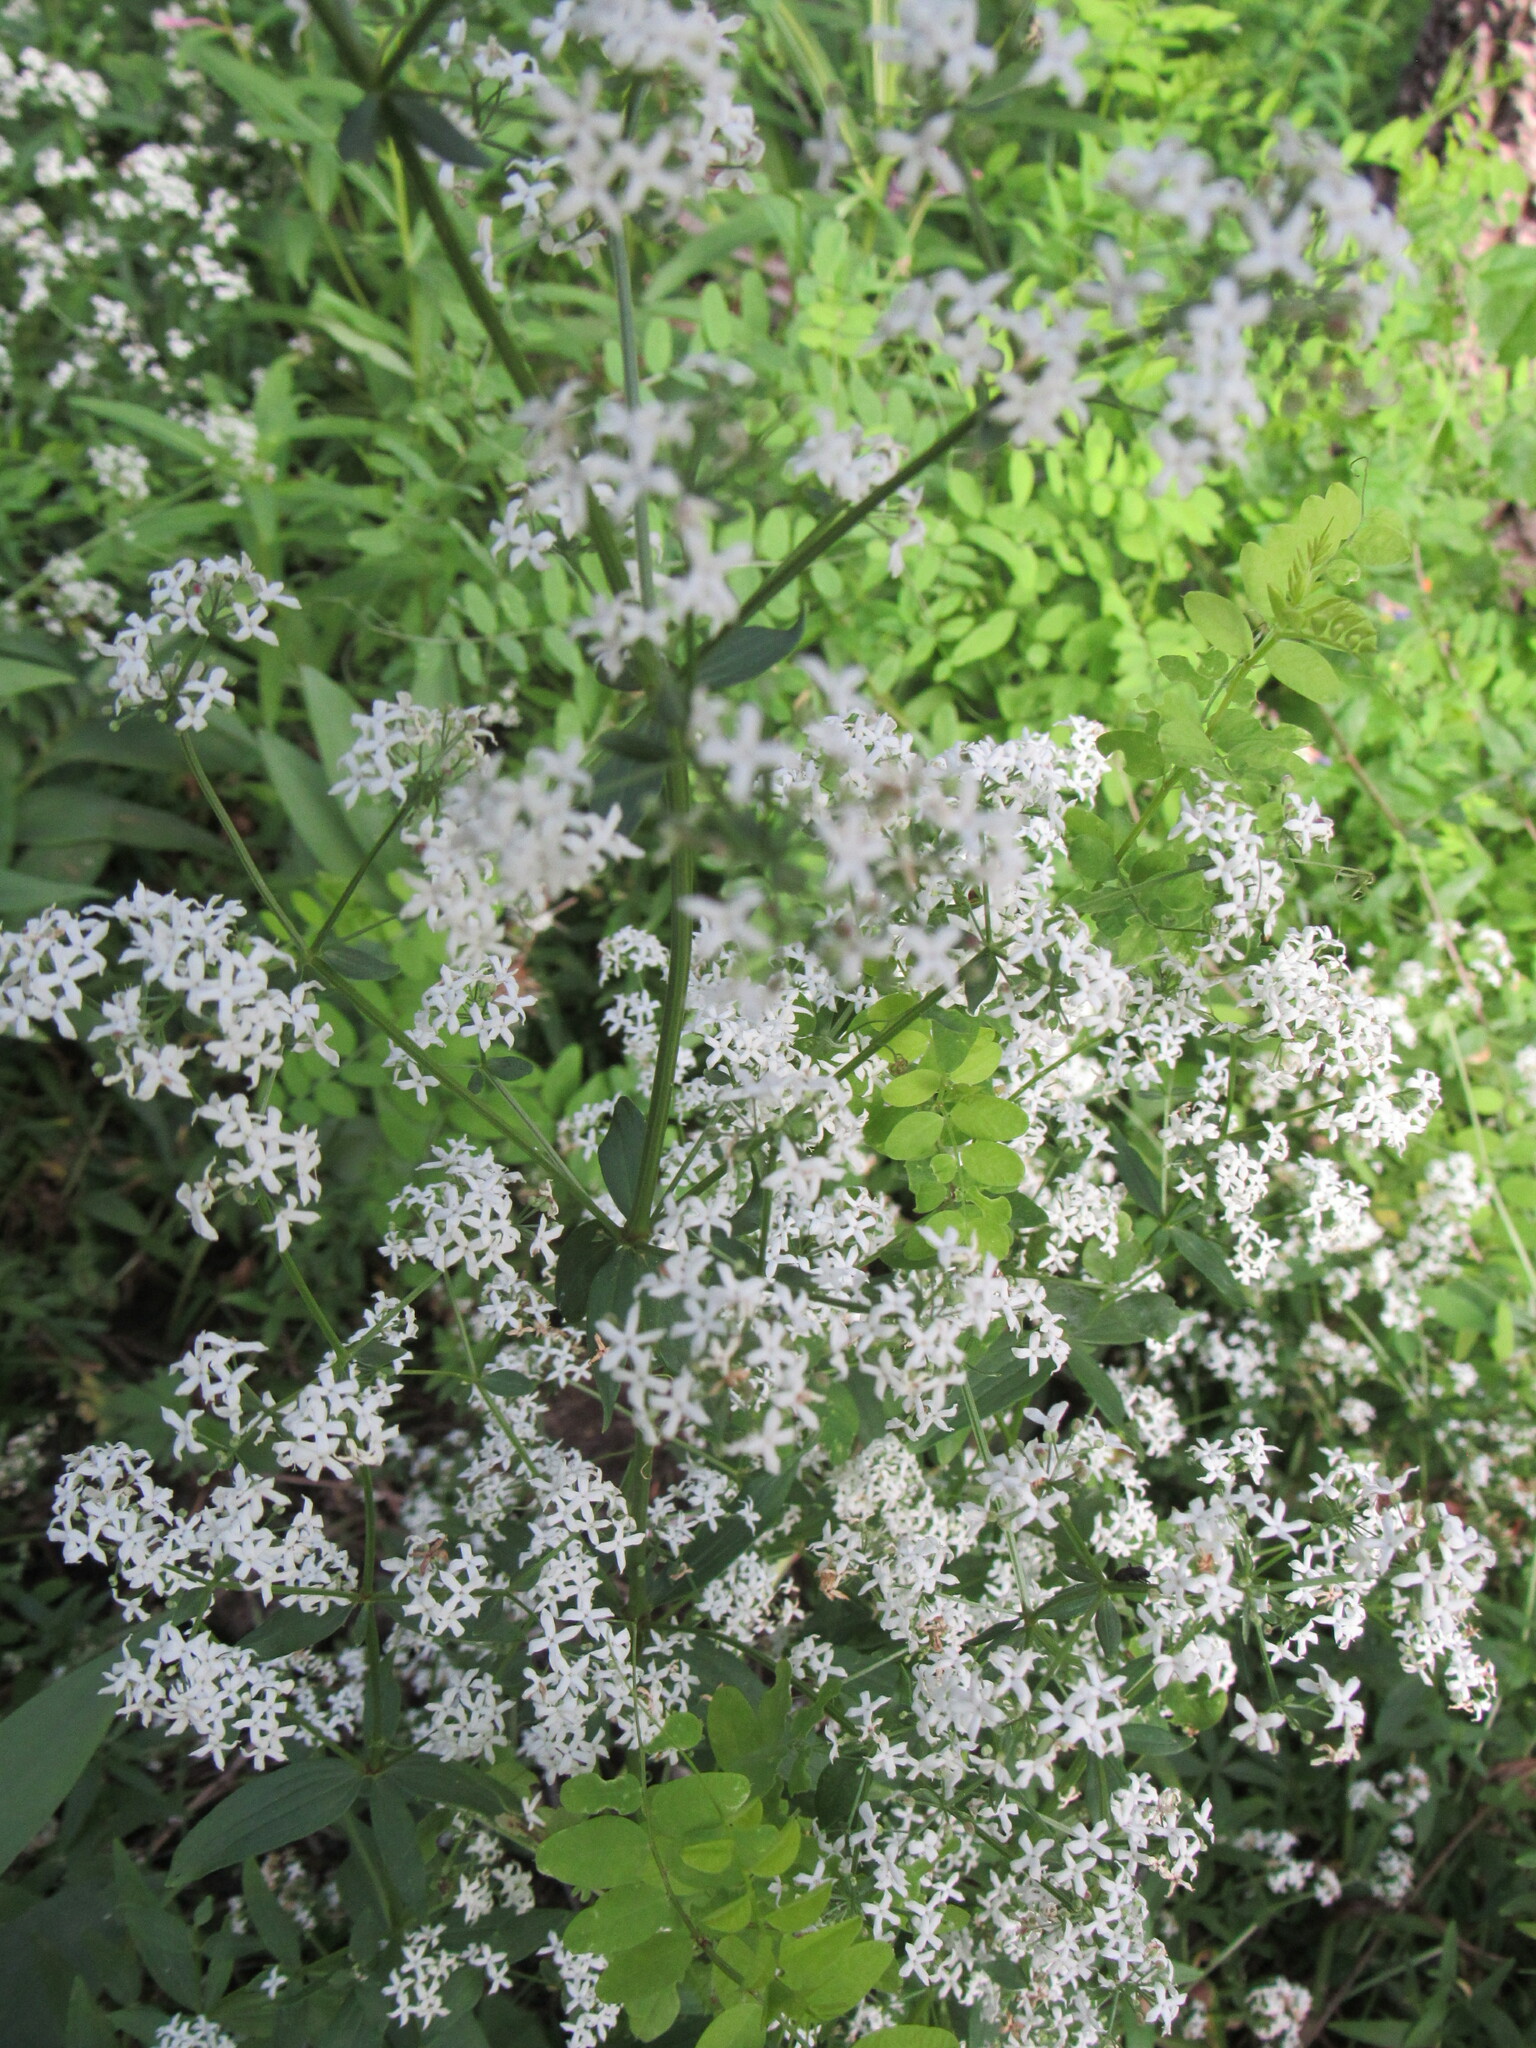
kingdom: Plantae
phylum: Tracheophyta
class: Magnoliopsida
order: Gentianales
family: Rubiaceae
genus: Galium
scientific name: Galium boreale
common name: Northern bedstraw
